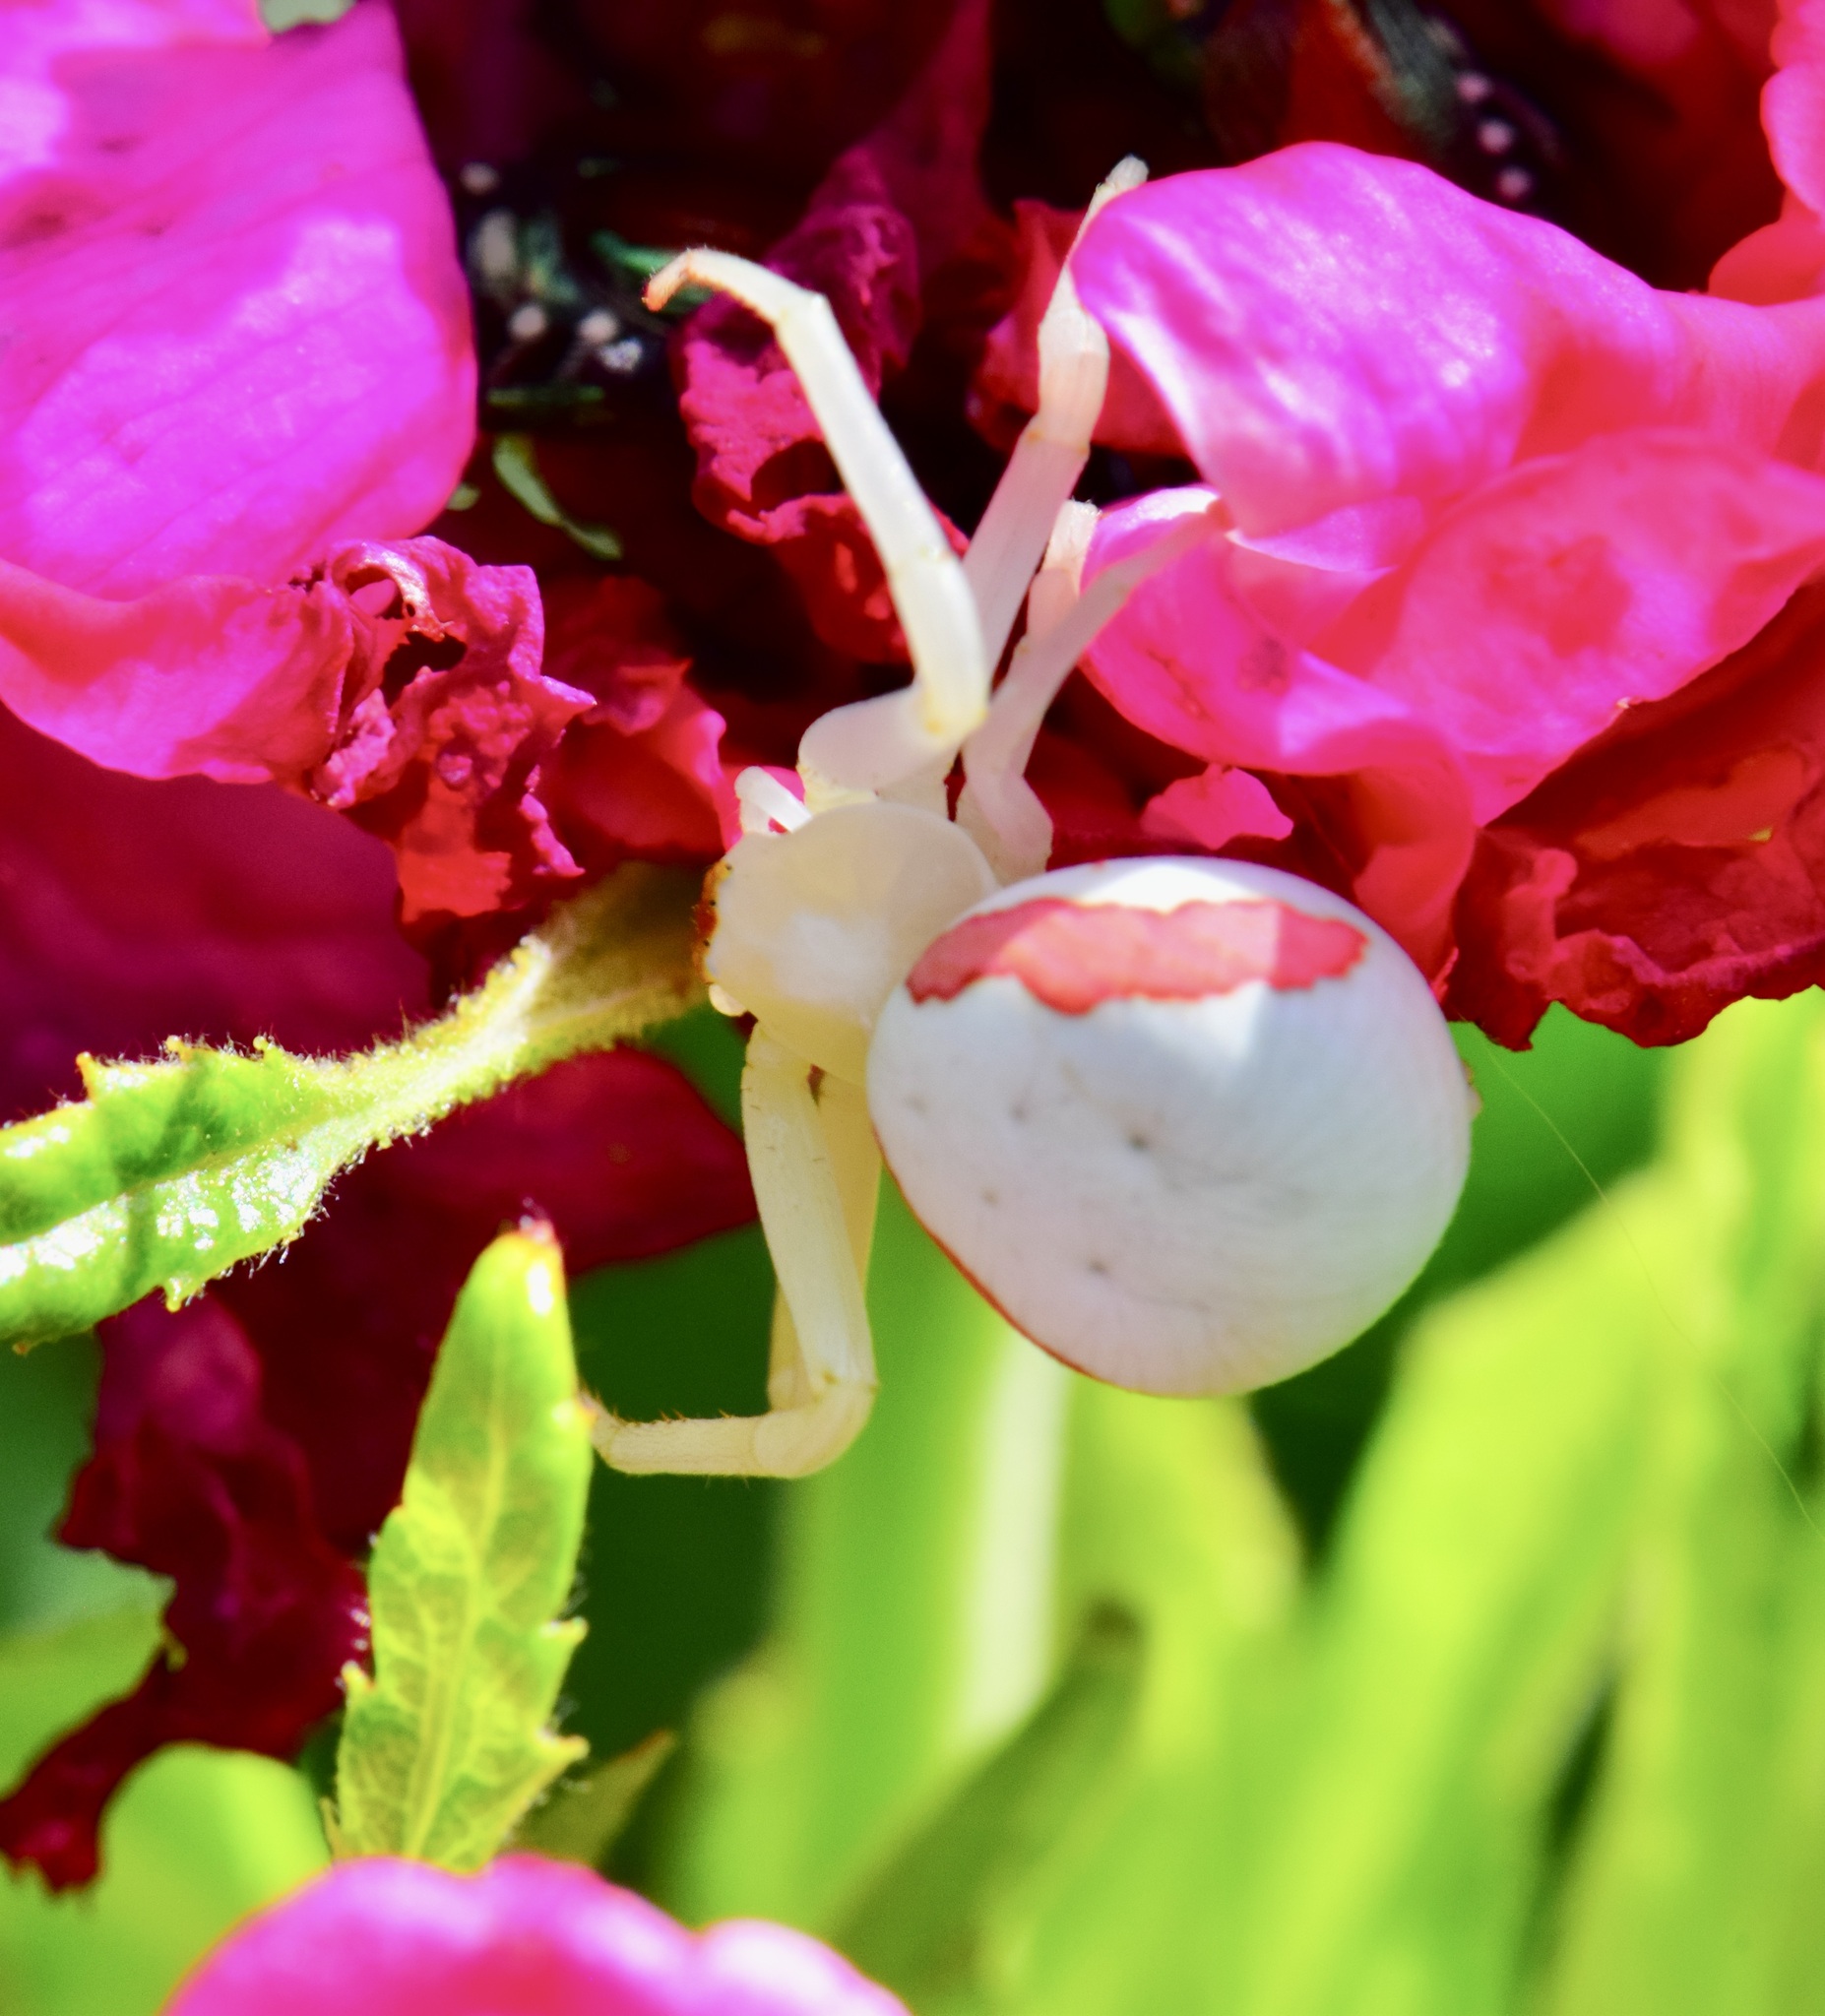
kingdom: Animalia
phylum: Arthropoda
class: Arachnida
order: Araneae
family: Thomisidae
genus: Misumena
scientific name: Misumena vatia
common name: Goldenrod crab spider
